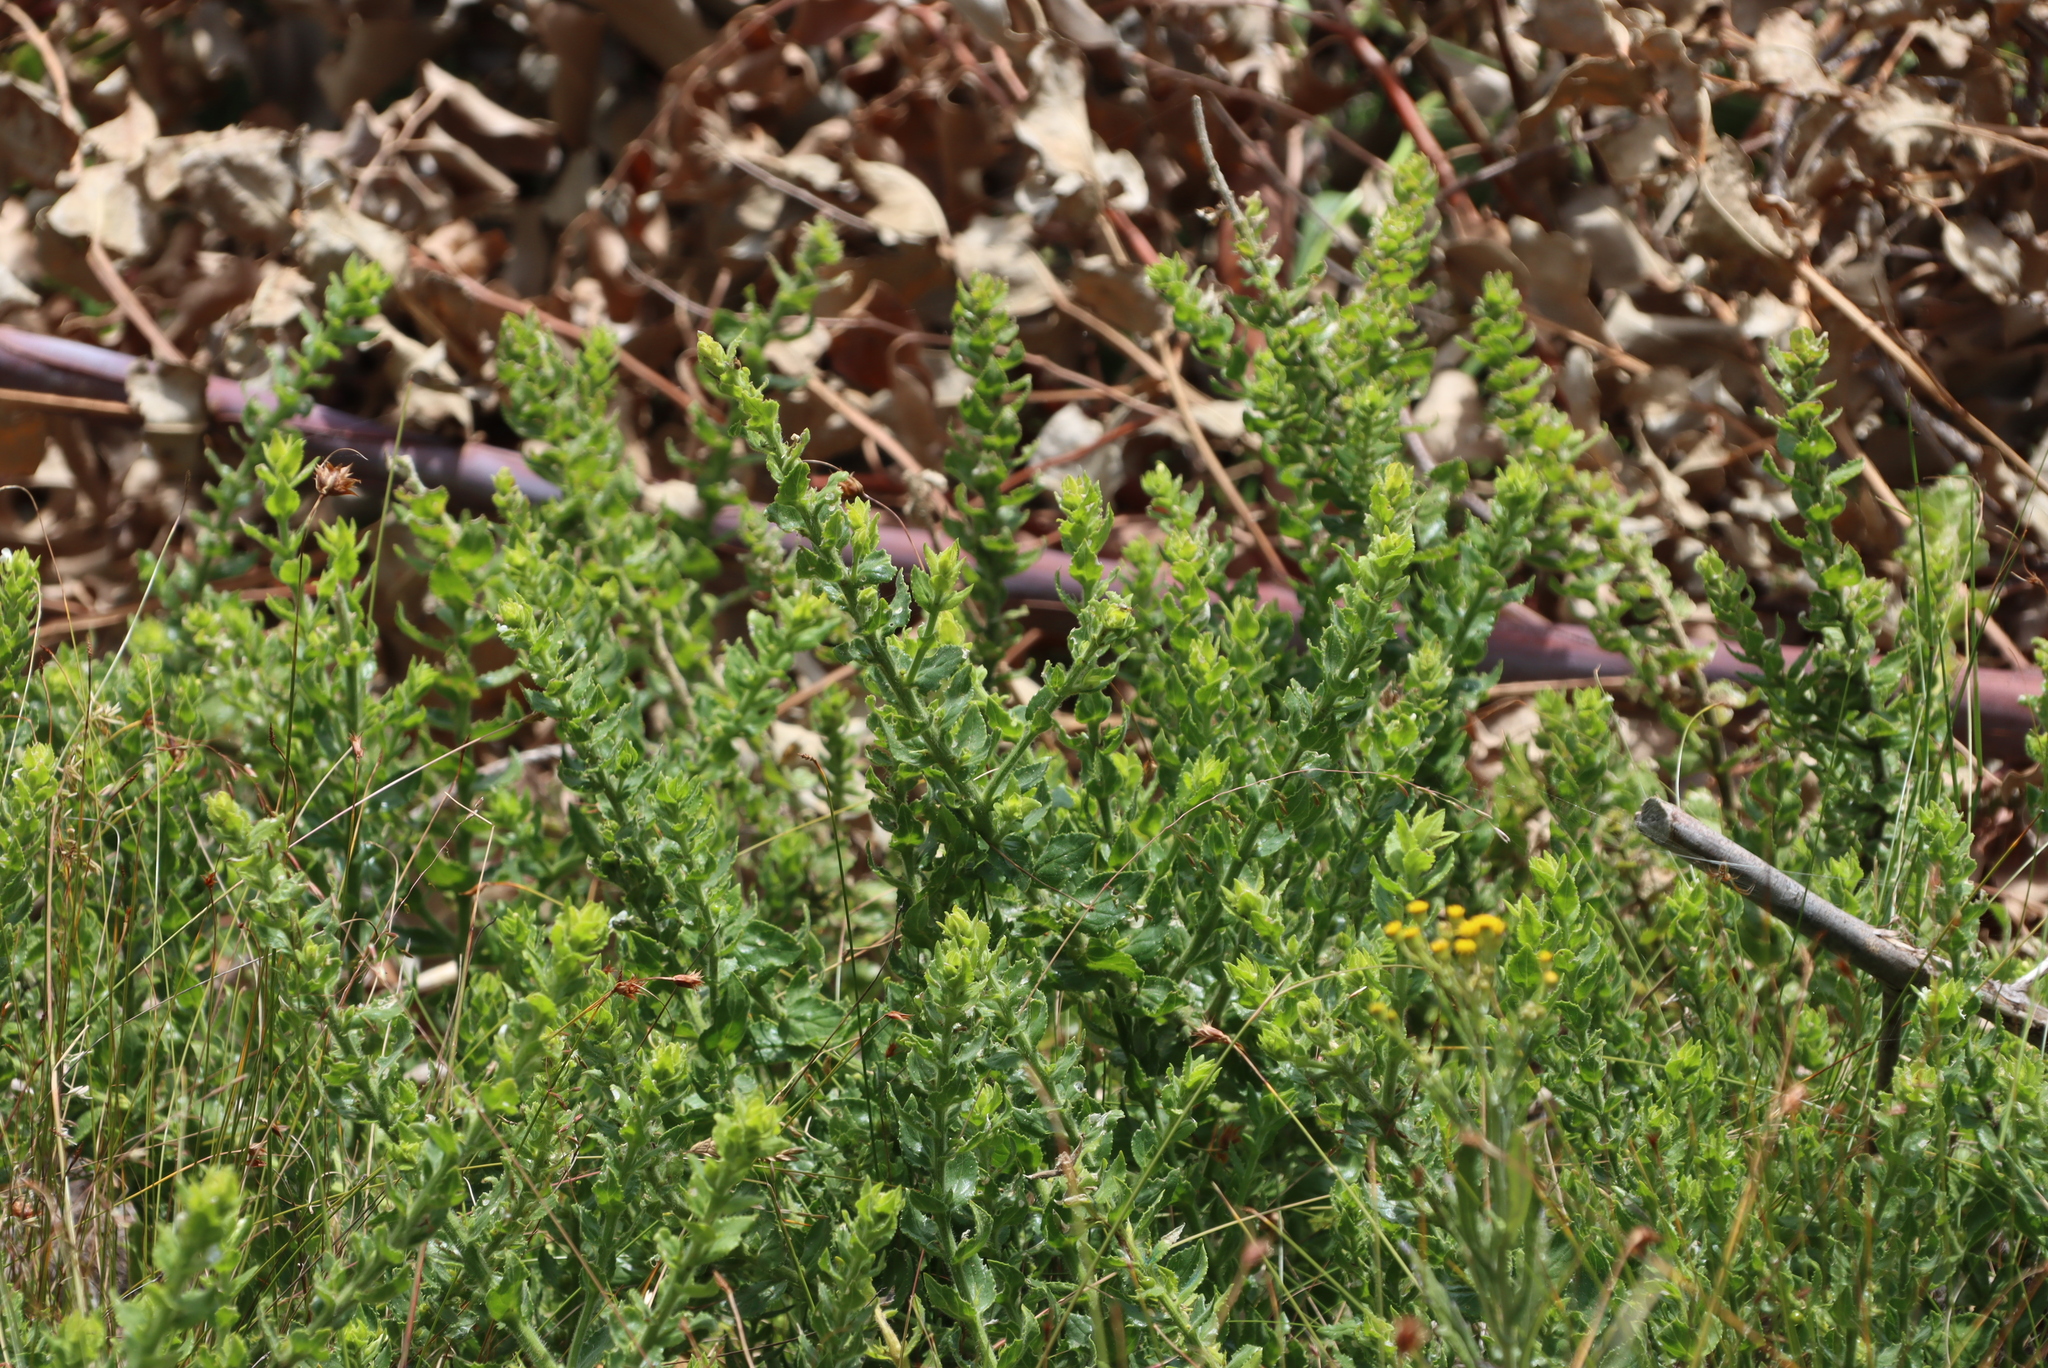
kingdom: Plantae
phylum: Tracheophyta
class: Magnoliopsida
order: Lamiales
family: Scrophulariaceae
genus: Oftia
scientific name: Oftia africana
